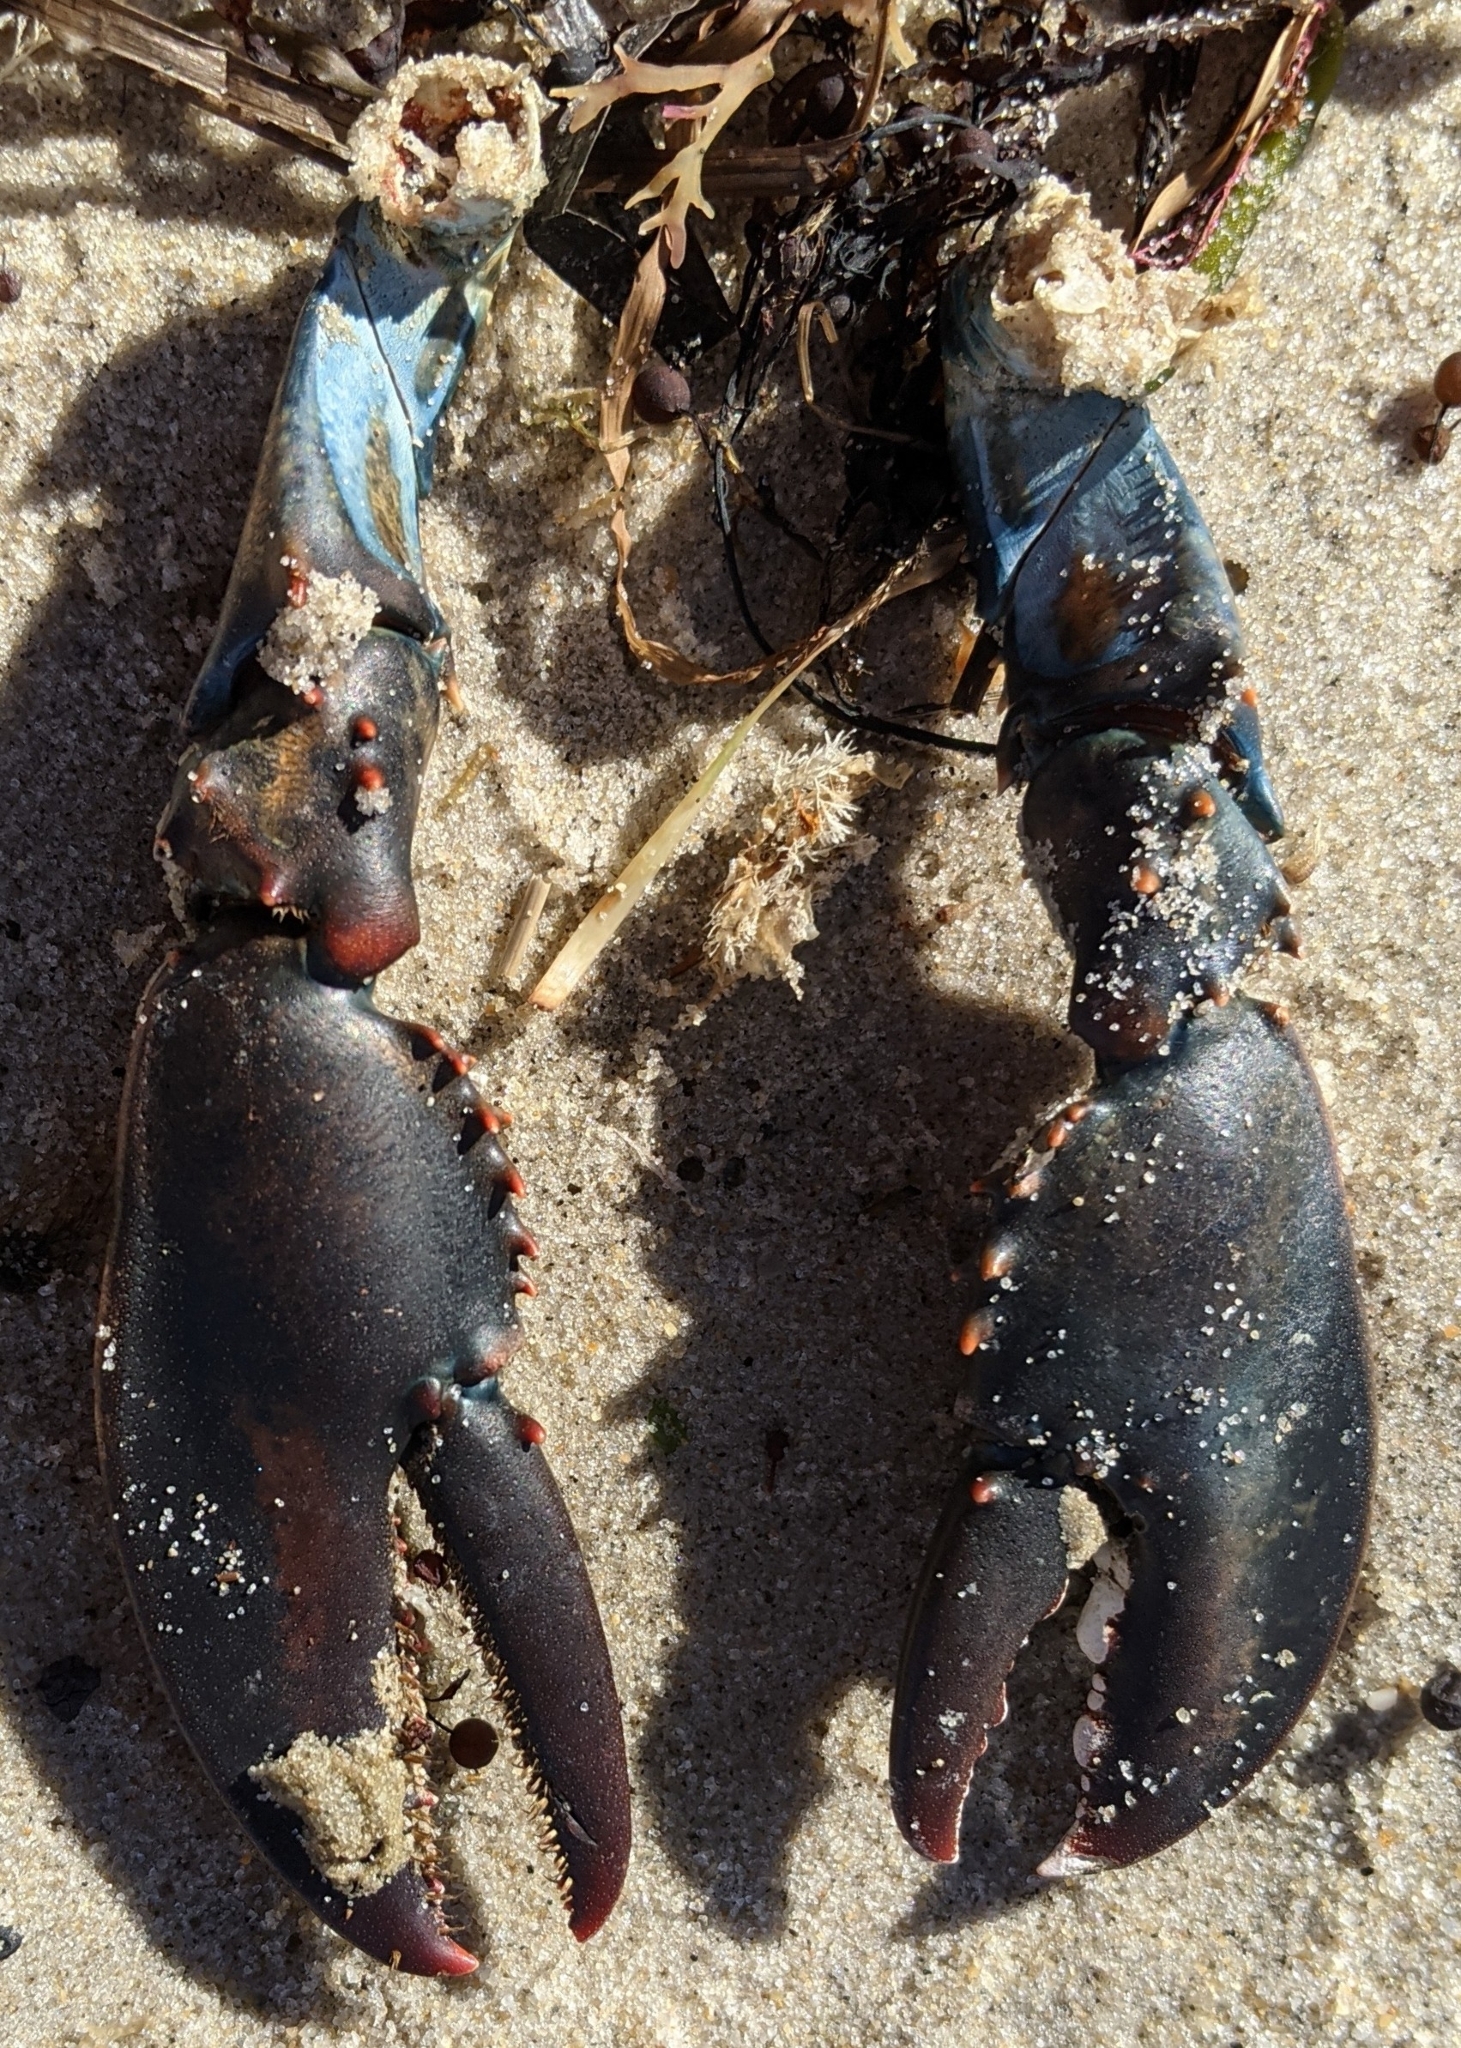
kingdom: Animalia
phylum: Arthropoda
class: Malacostraca
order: Decapoda
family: Nephropidae
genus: Homarus
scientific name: Homarus americanus
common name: American lobster
